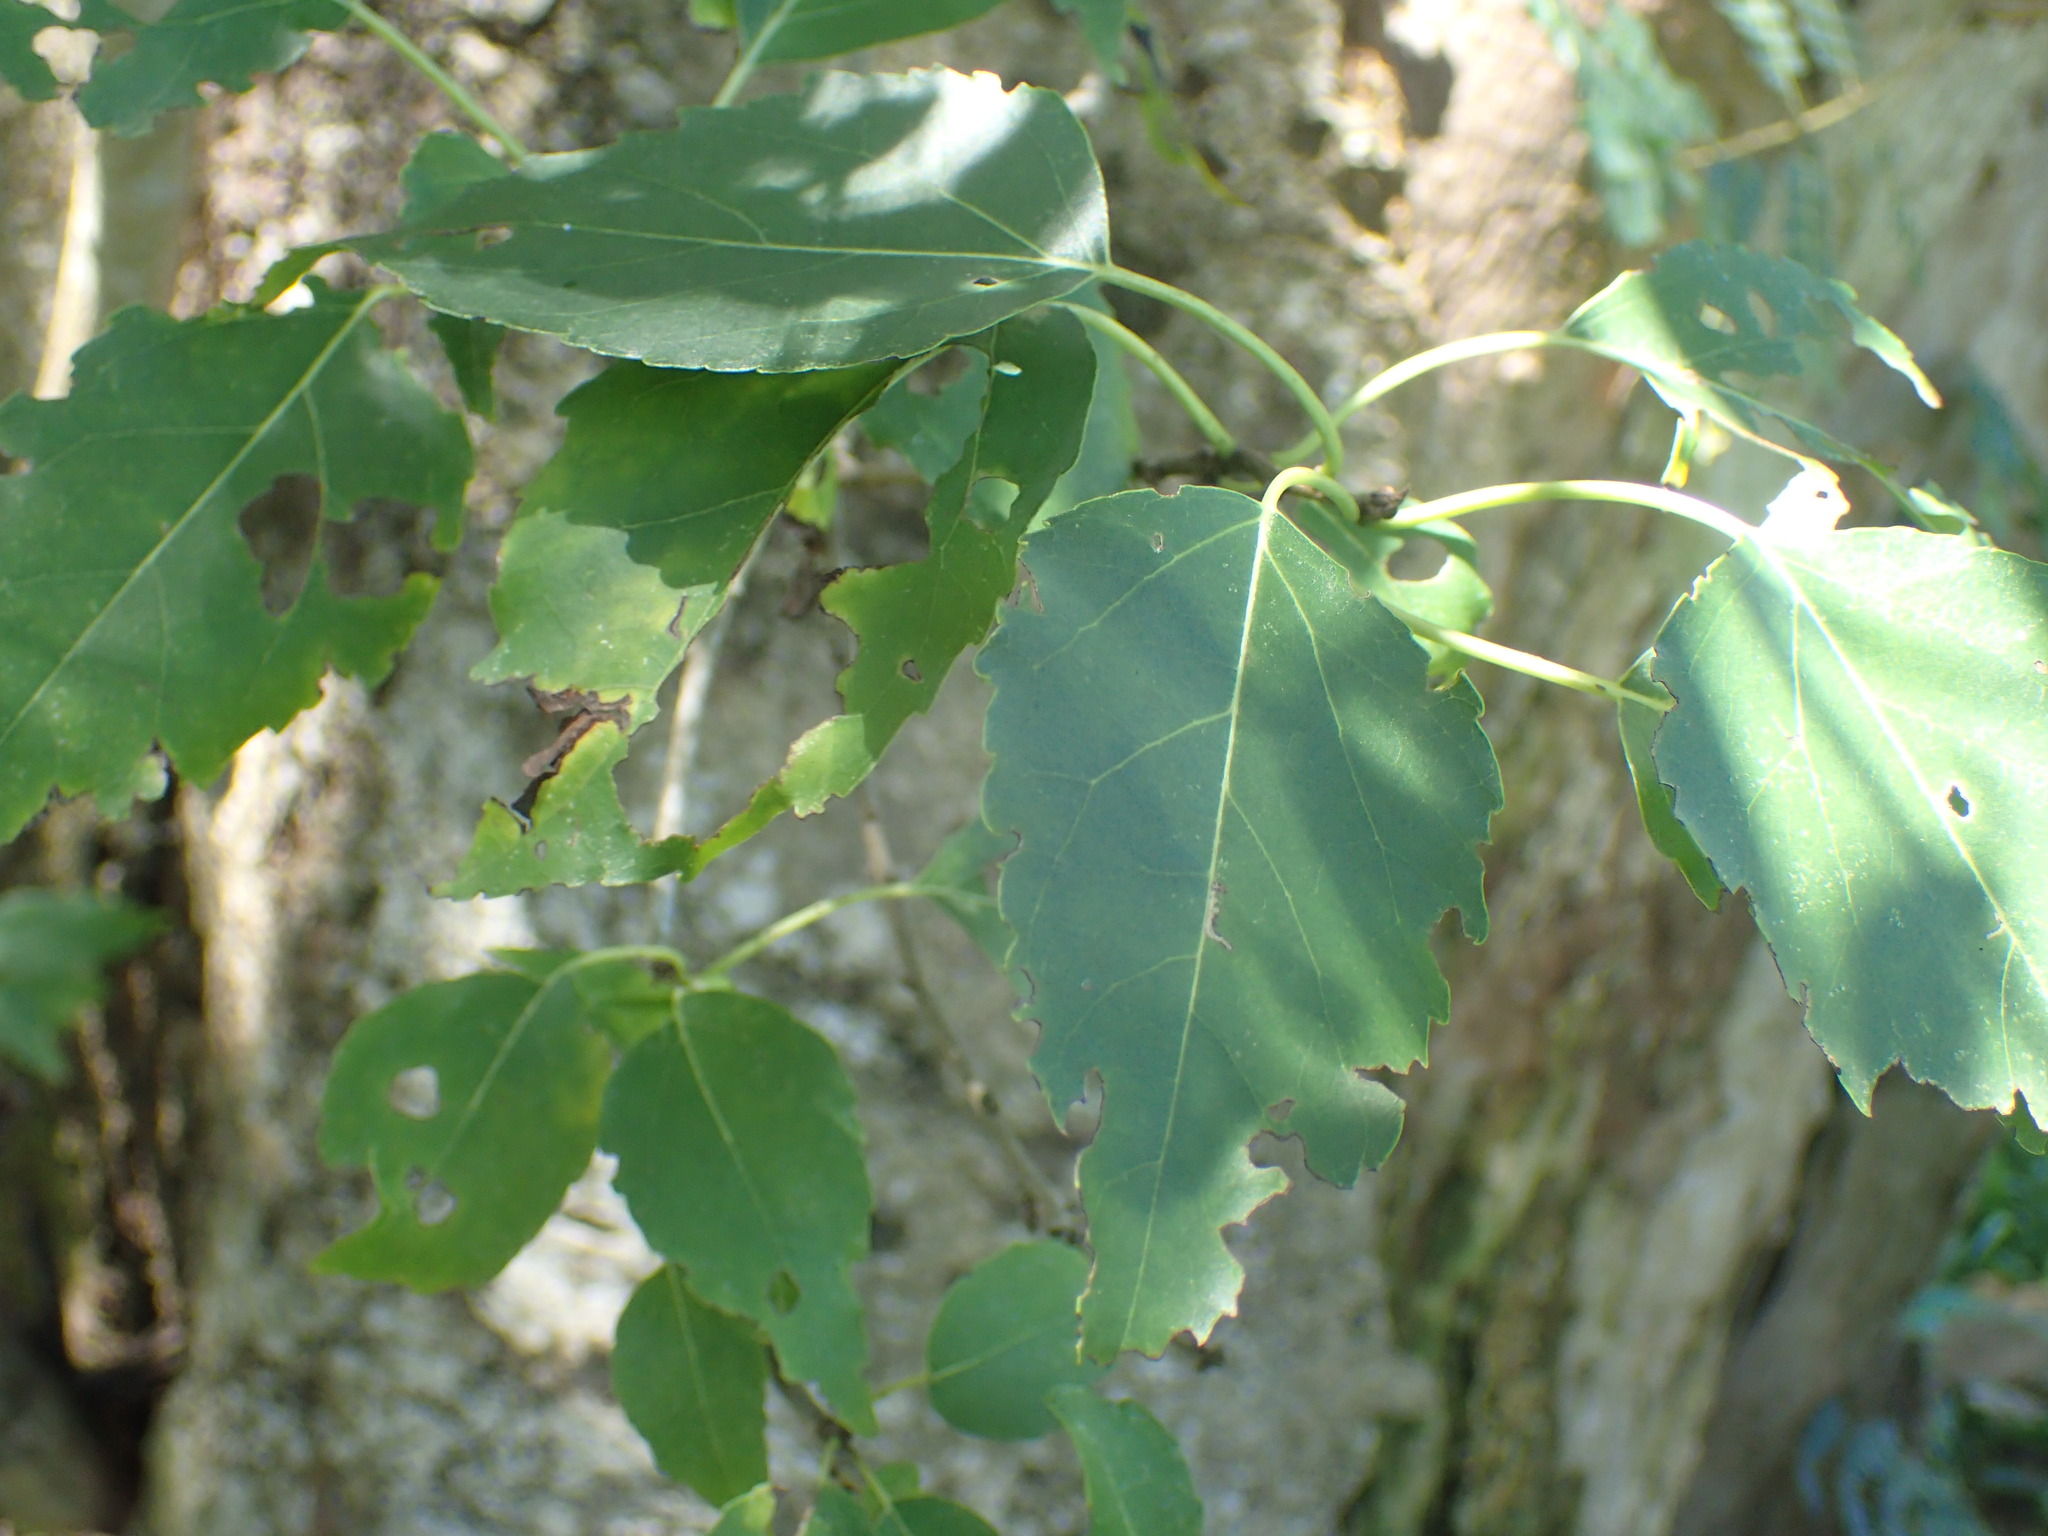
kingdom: Plantae
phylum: Tracheophyta
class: Magnoliopsida
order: Boraginales
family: Cordiaceae
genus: Cordia
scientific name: Cordia caffra
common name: Septee tree
